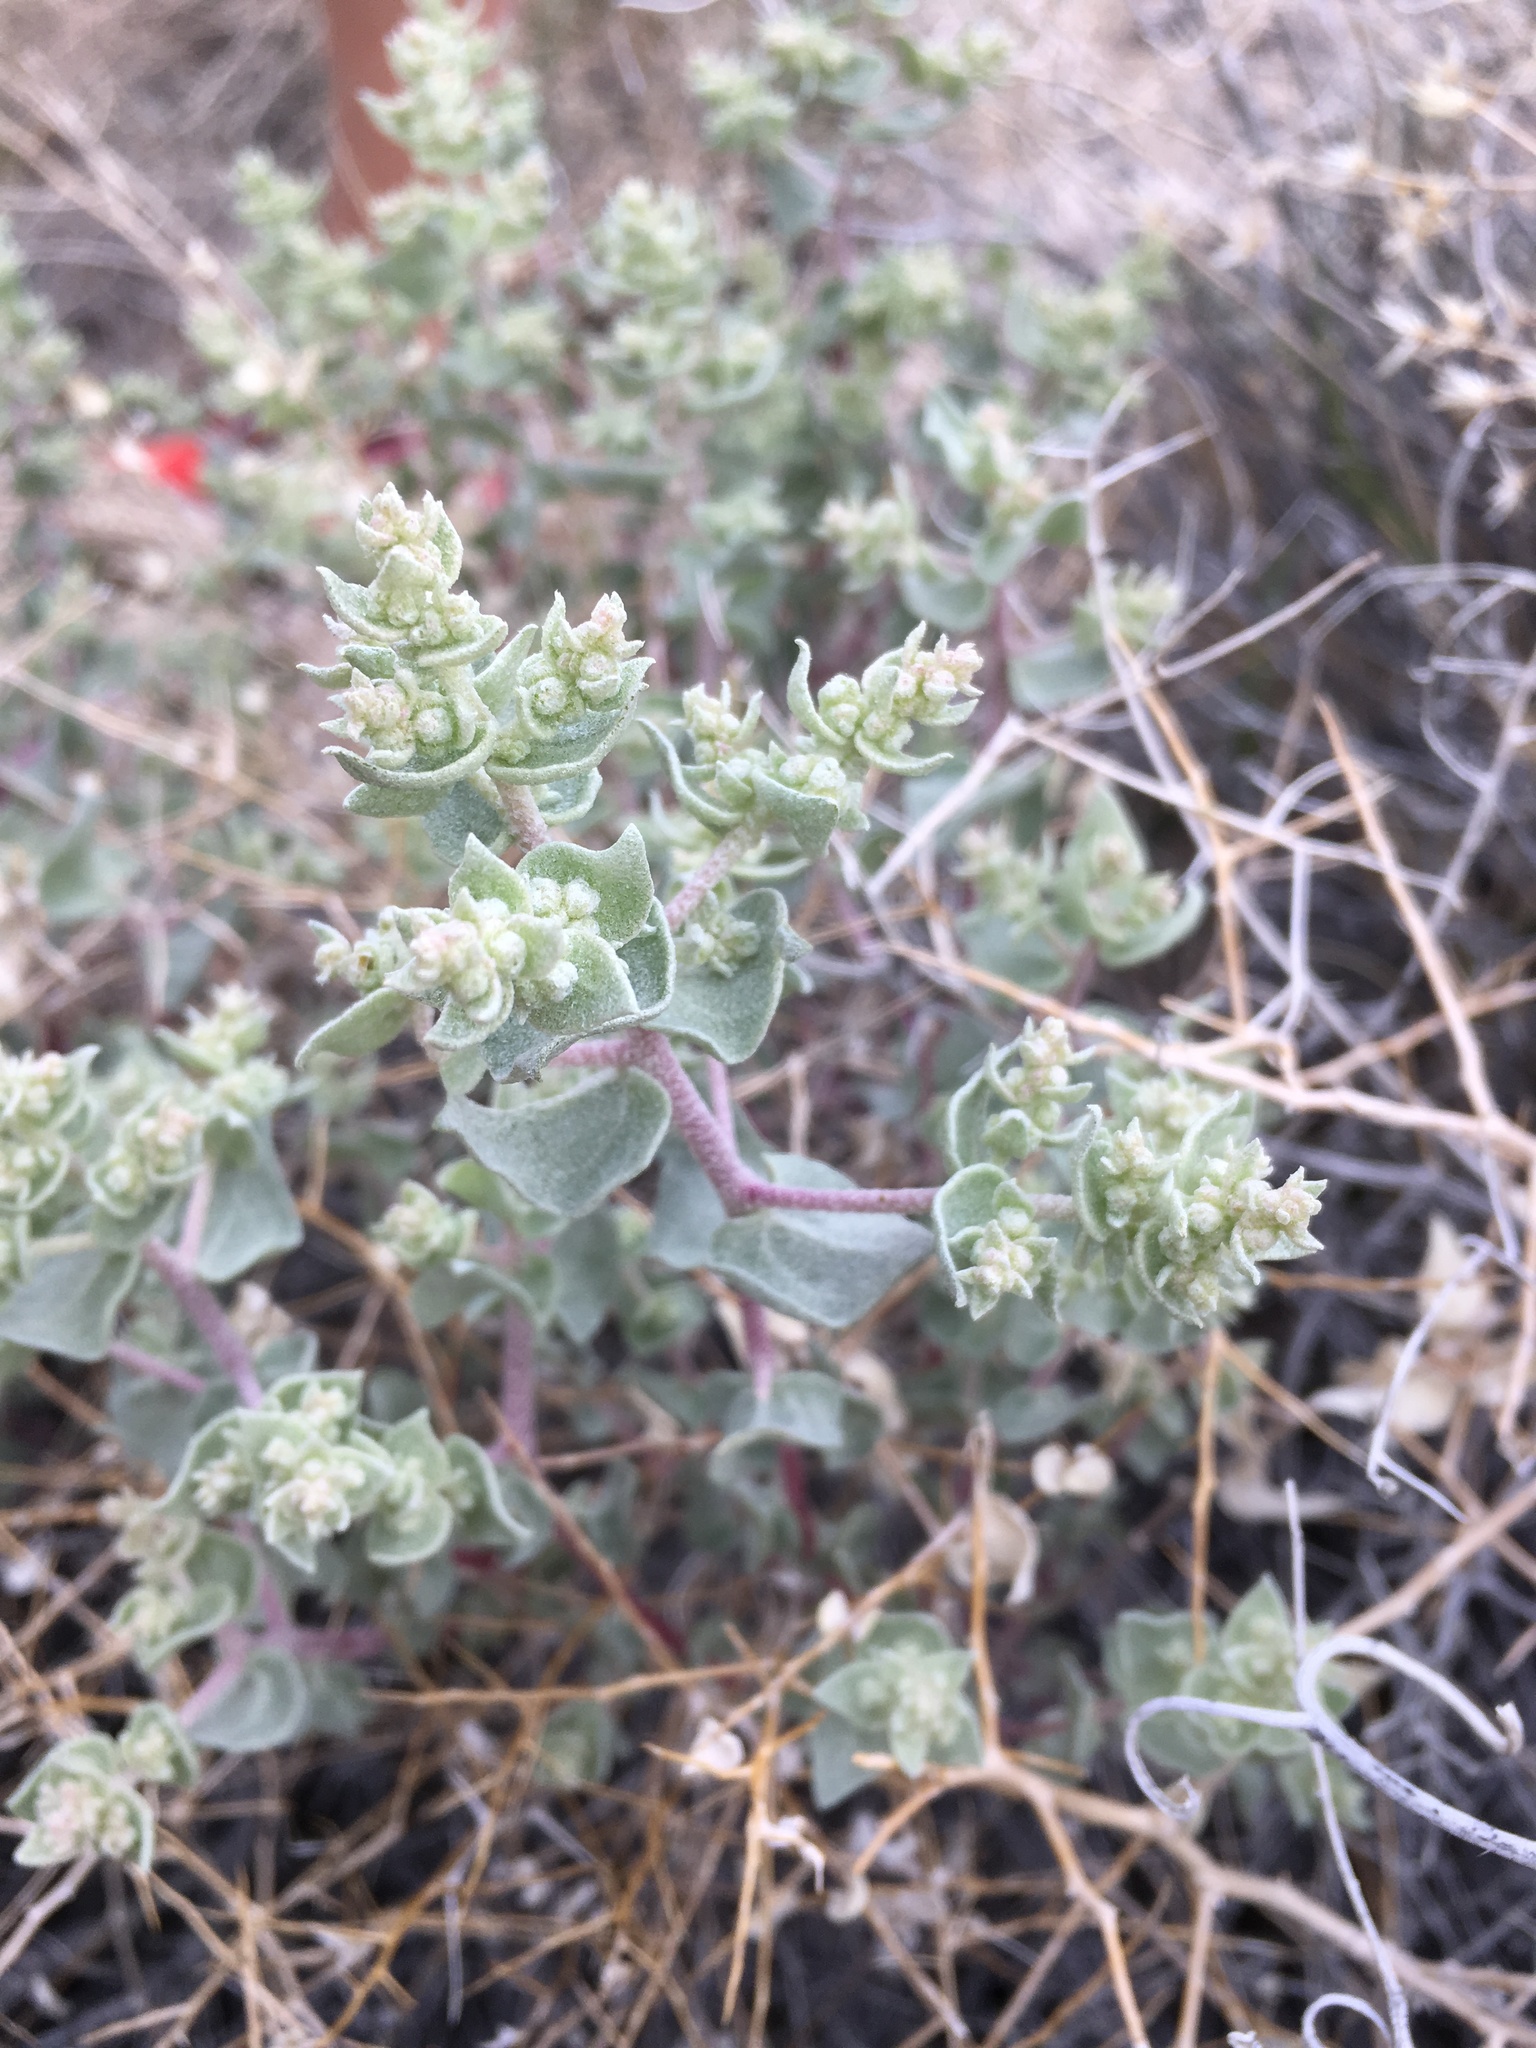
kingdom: Plantae
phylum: Tracheophyta
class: Magnoliopsida
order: Caryophyllales
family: Amaranthaceae
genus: Atriplex
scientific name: Atriplex parryi
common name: Parry's saltbush
